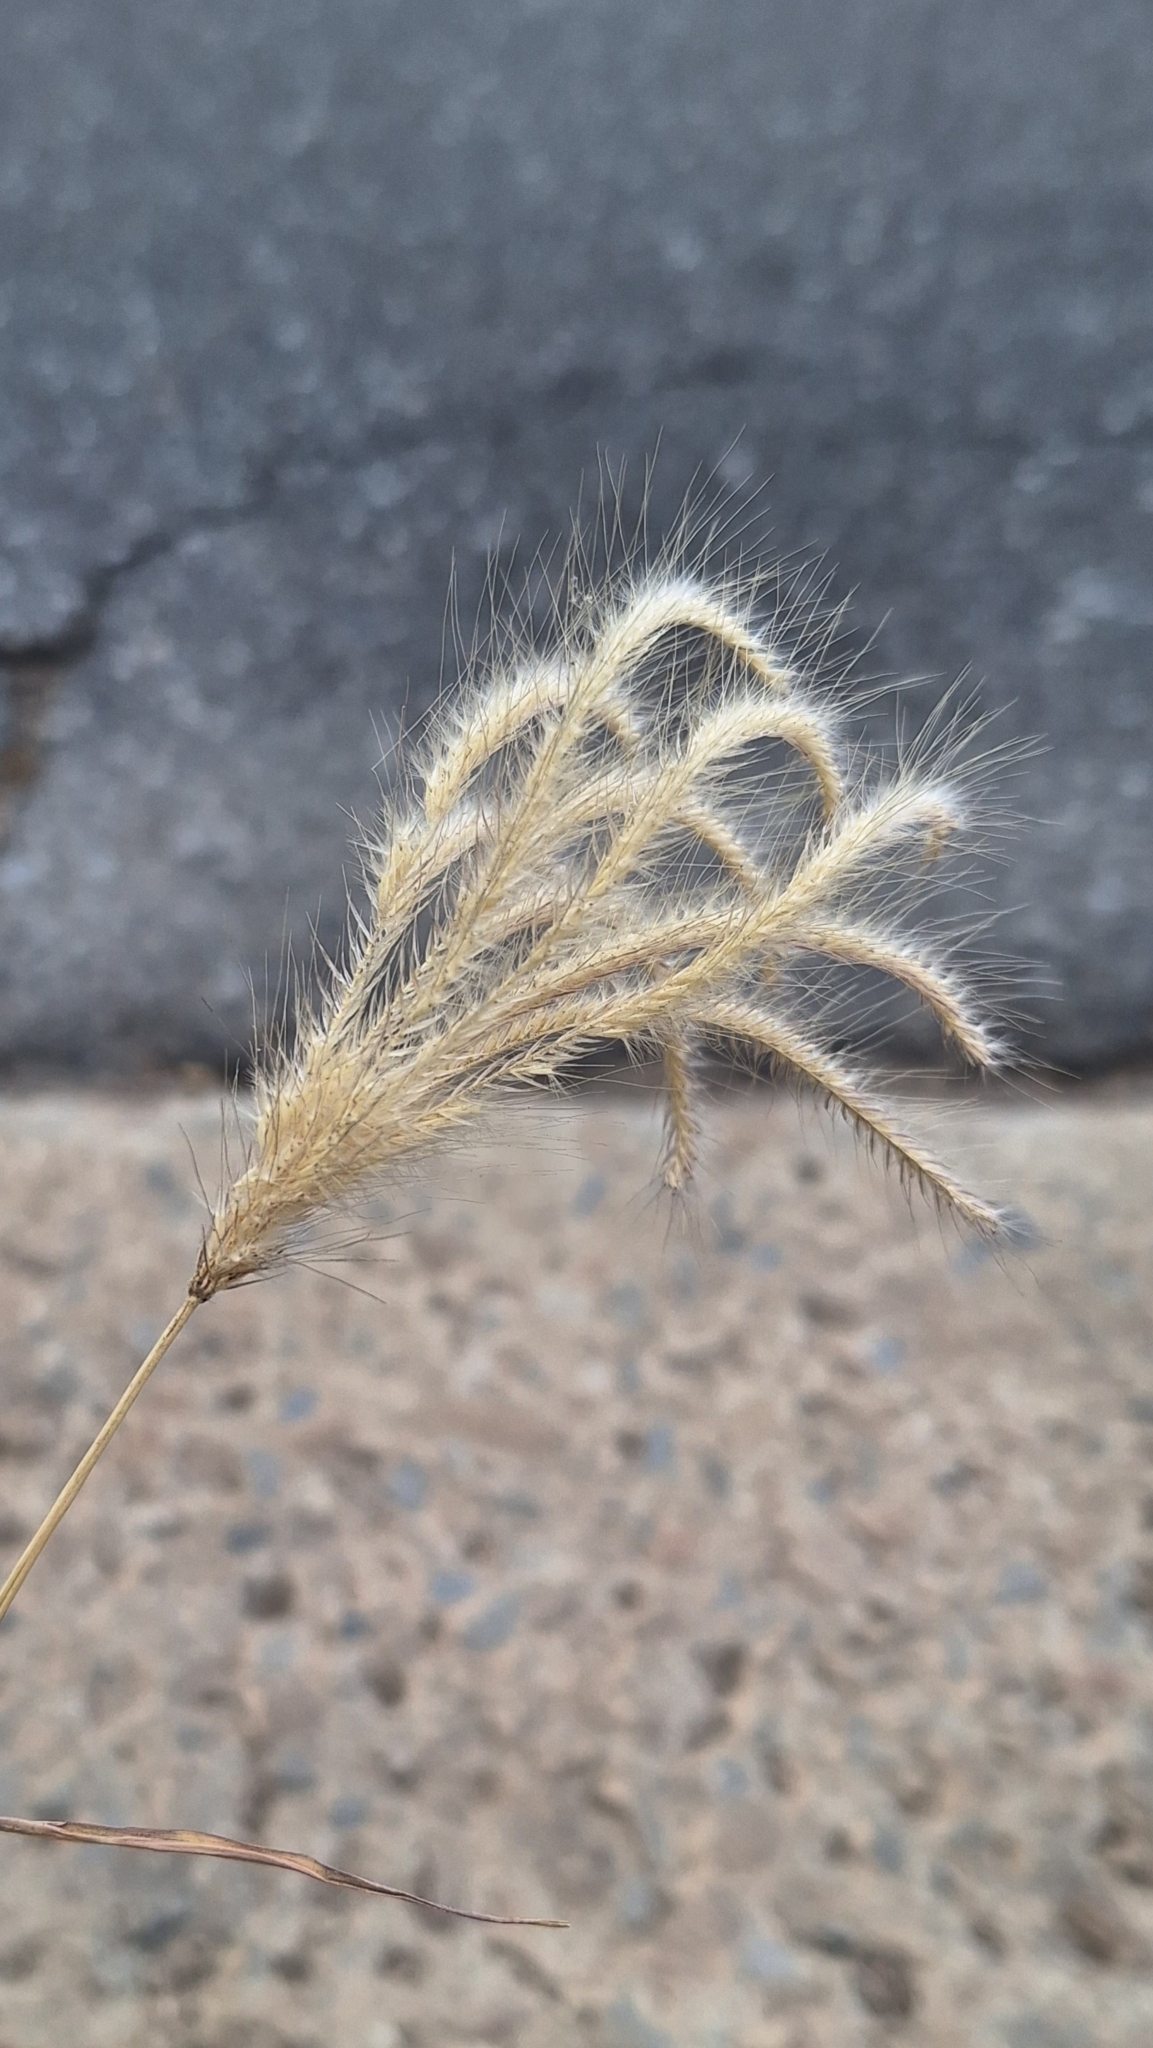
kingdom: Plantae
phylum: Tracheophyta
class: Liliopsida
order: Poales
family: Poaceae
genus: Chloris
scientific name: Chloris virgata
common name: Feathery rhodes-grass
